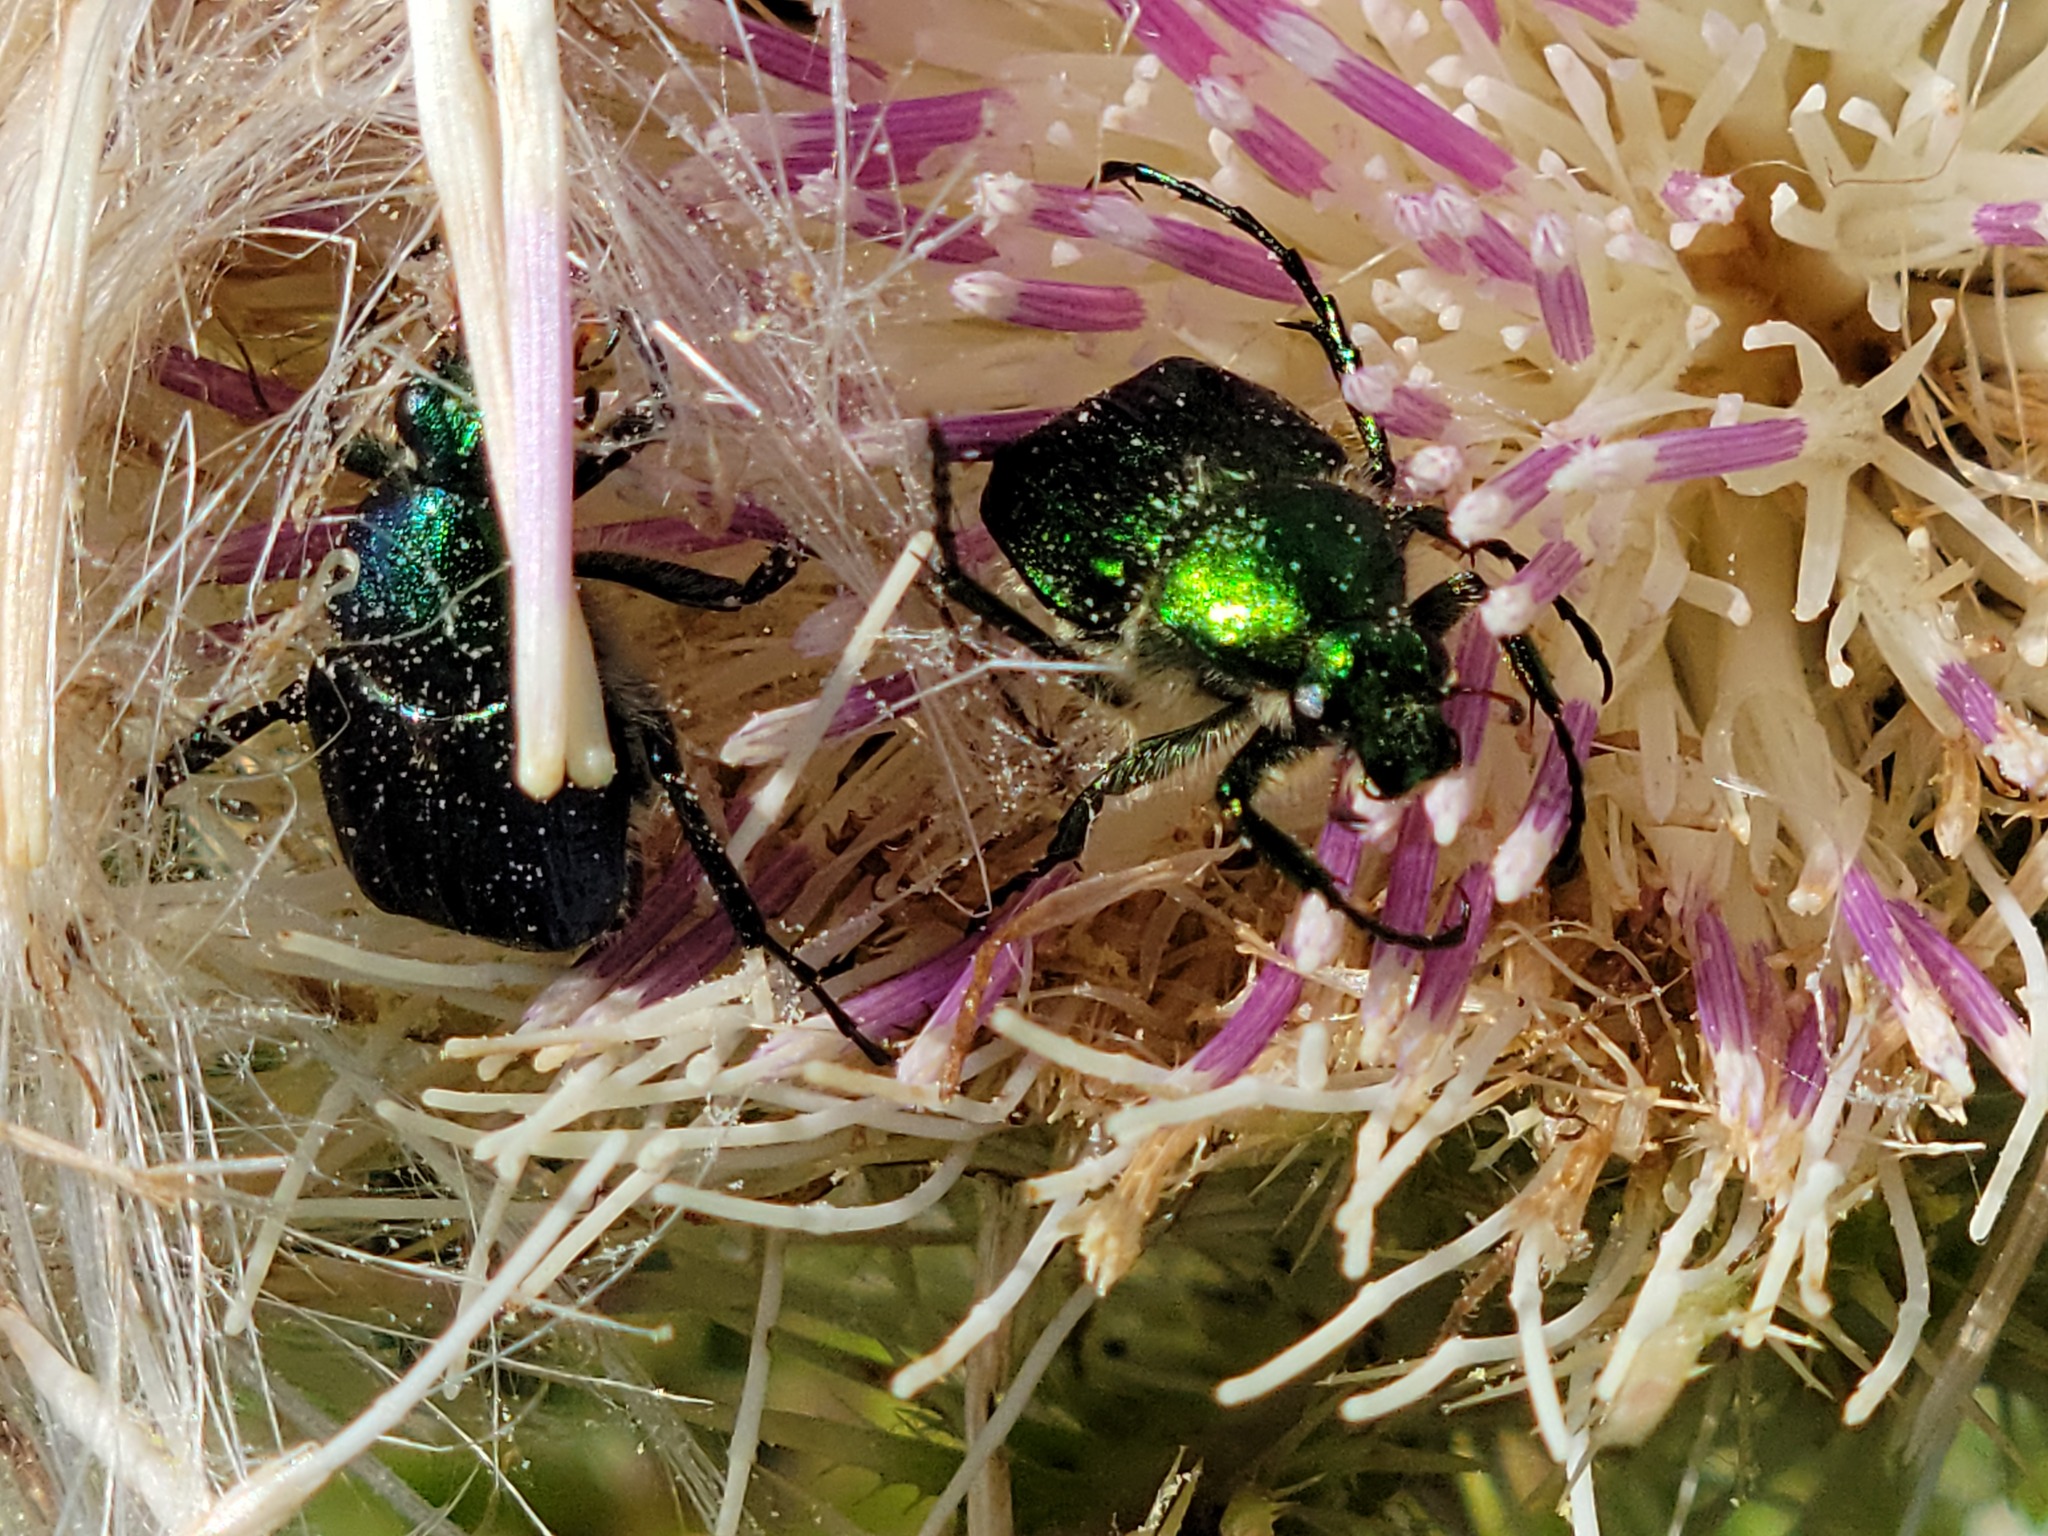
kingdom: Animalia
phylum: Arthropoda
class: Insecta
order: Coleoptera
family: Scarabaeidae
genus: Trichiotinus
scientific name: Trichiotinus lunulatus
